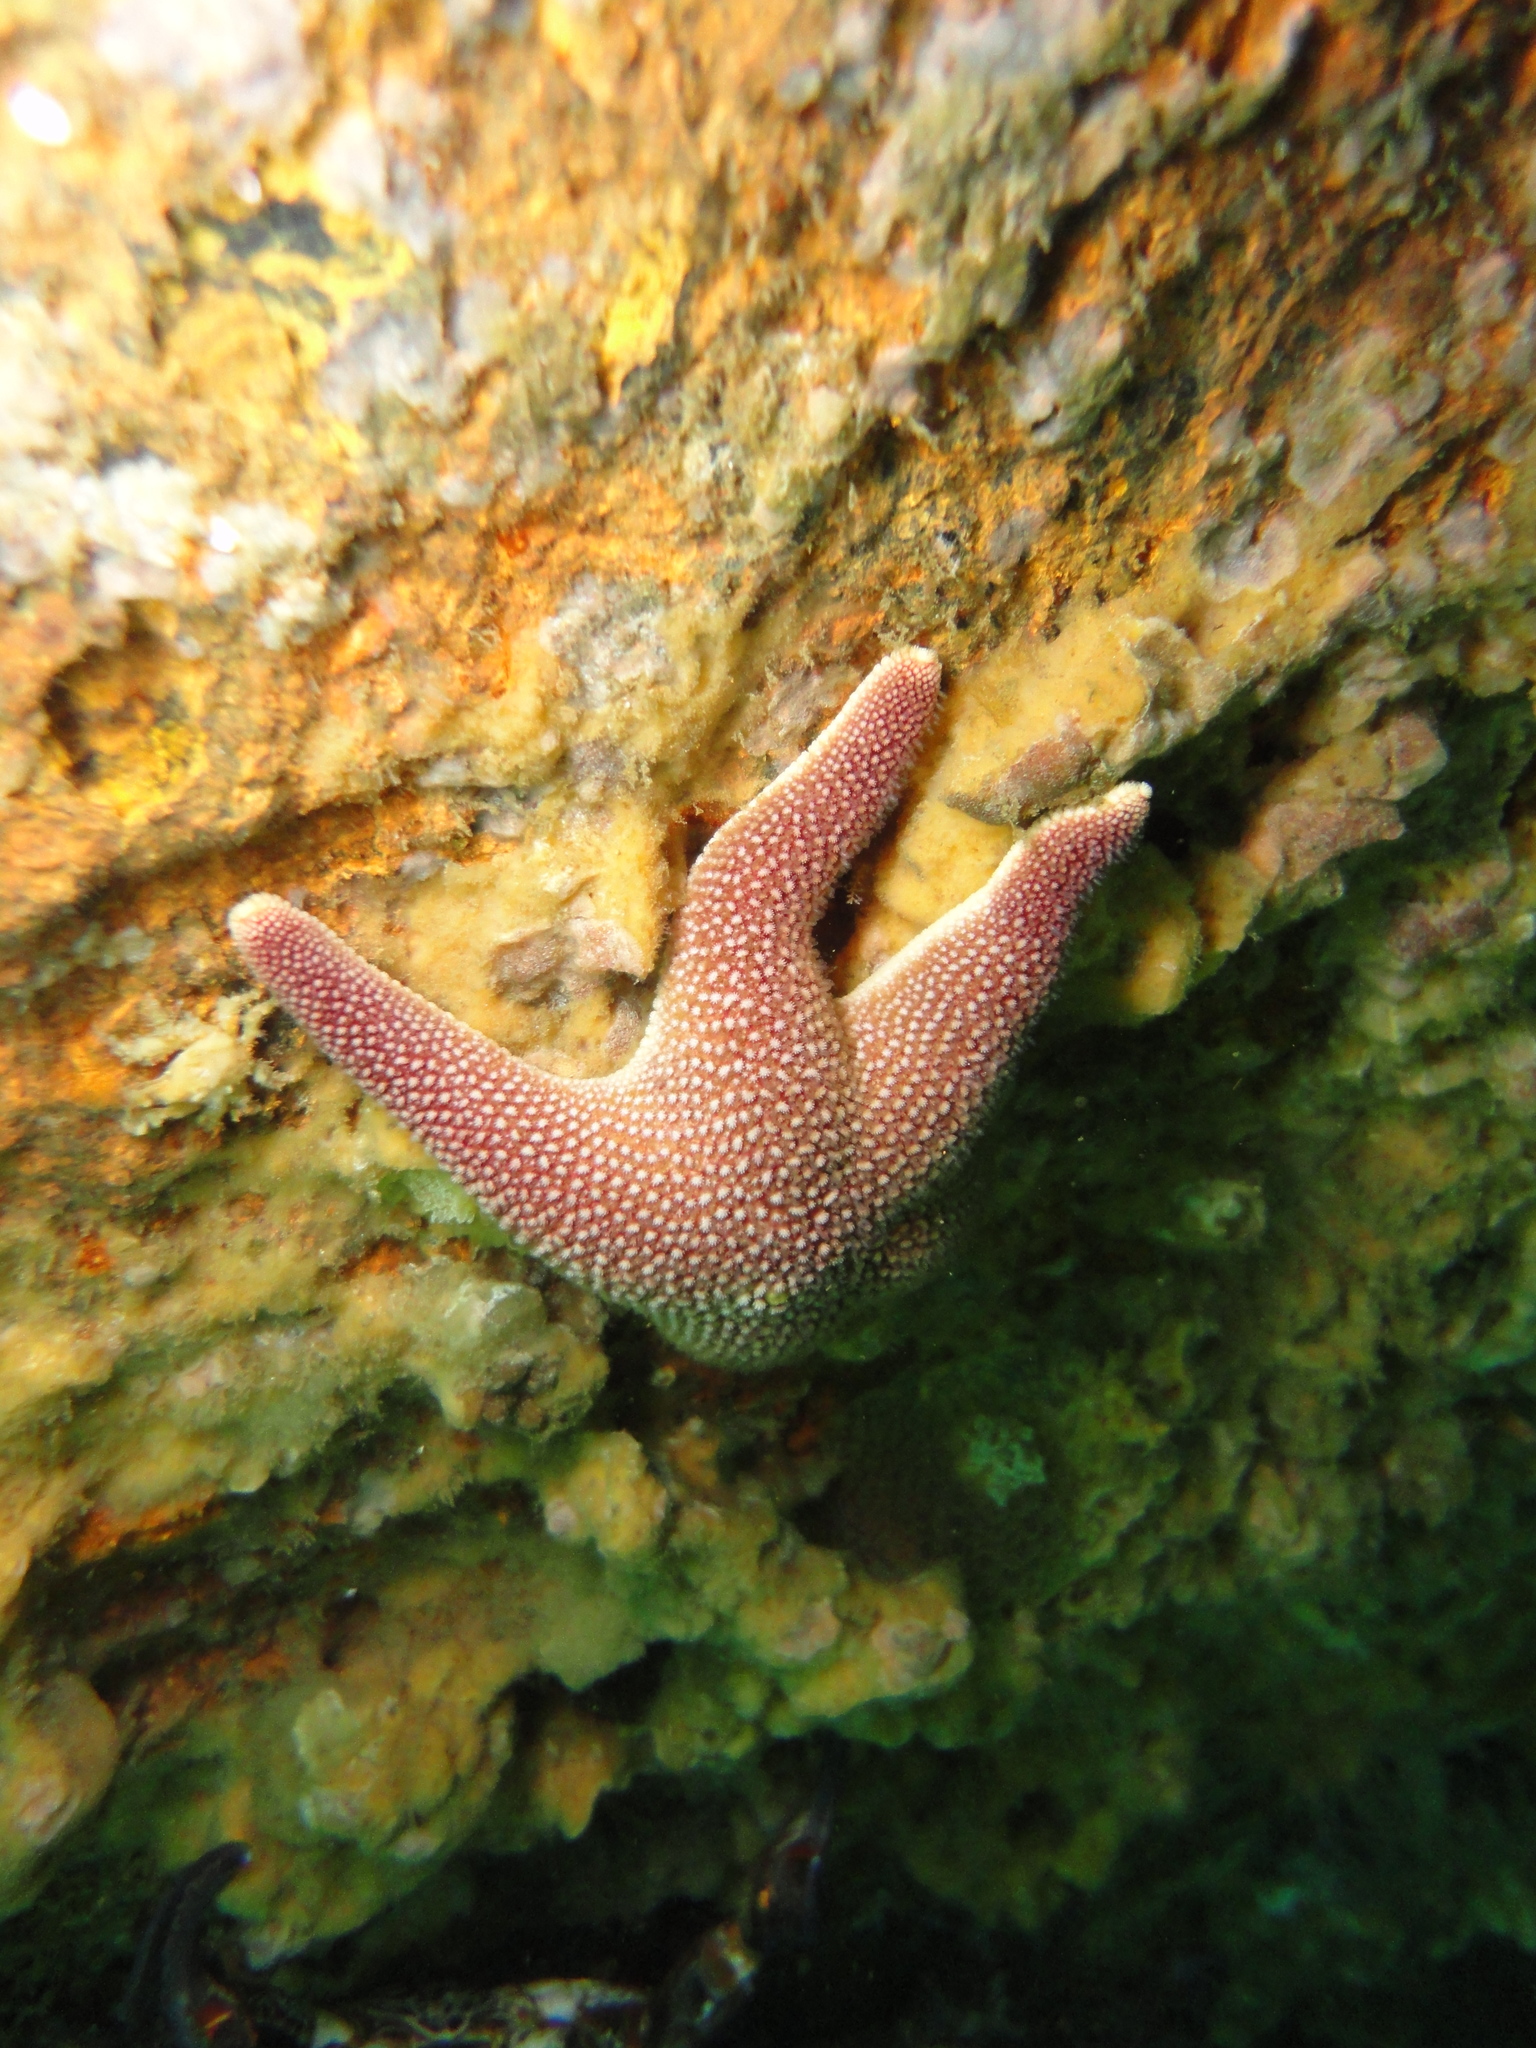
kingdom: Animalia
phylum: Echinodermata
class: Asteroidea
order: Valvatida
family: Asterinidae
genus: Cycethra
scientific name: Cycethra verrucosa
